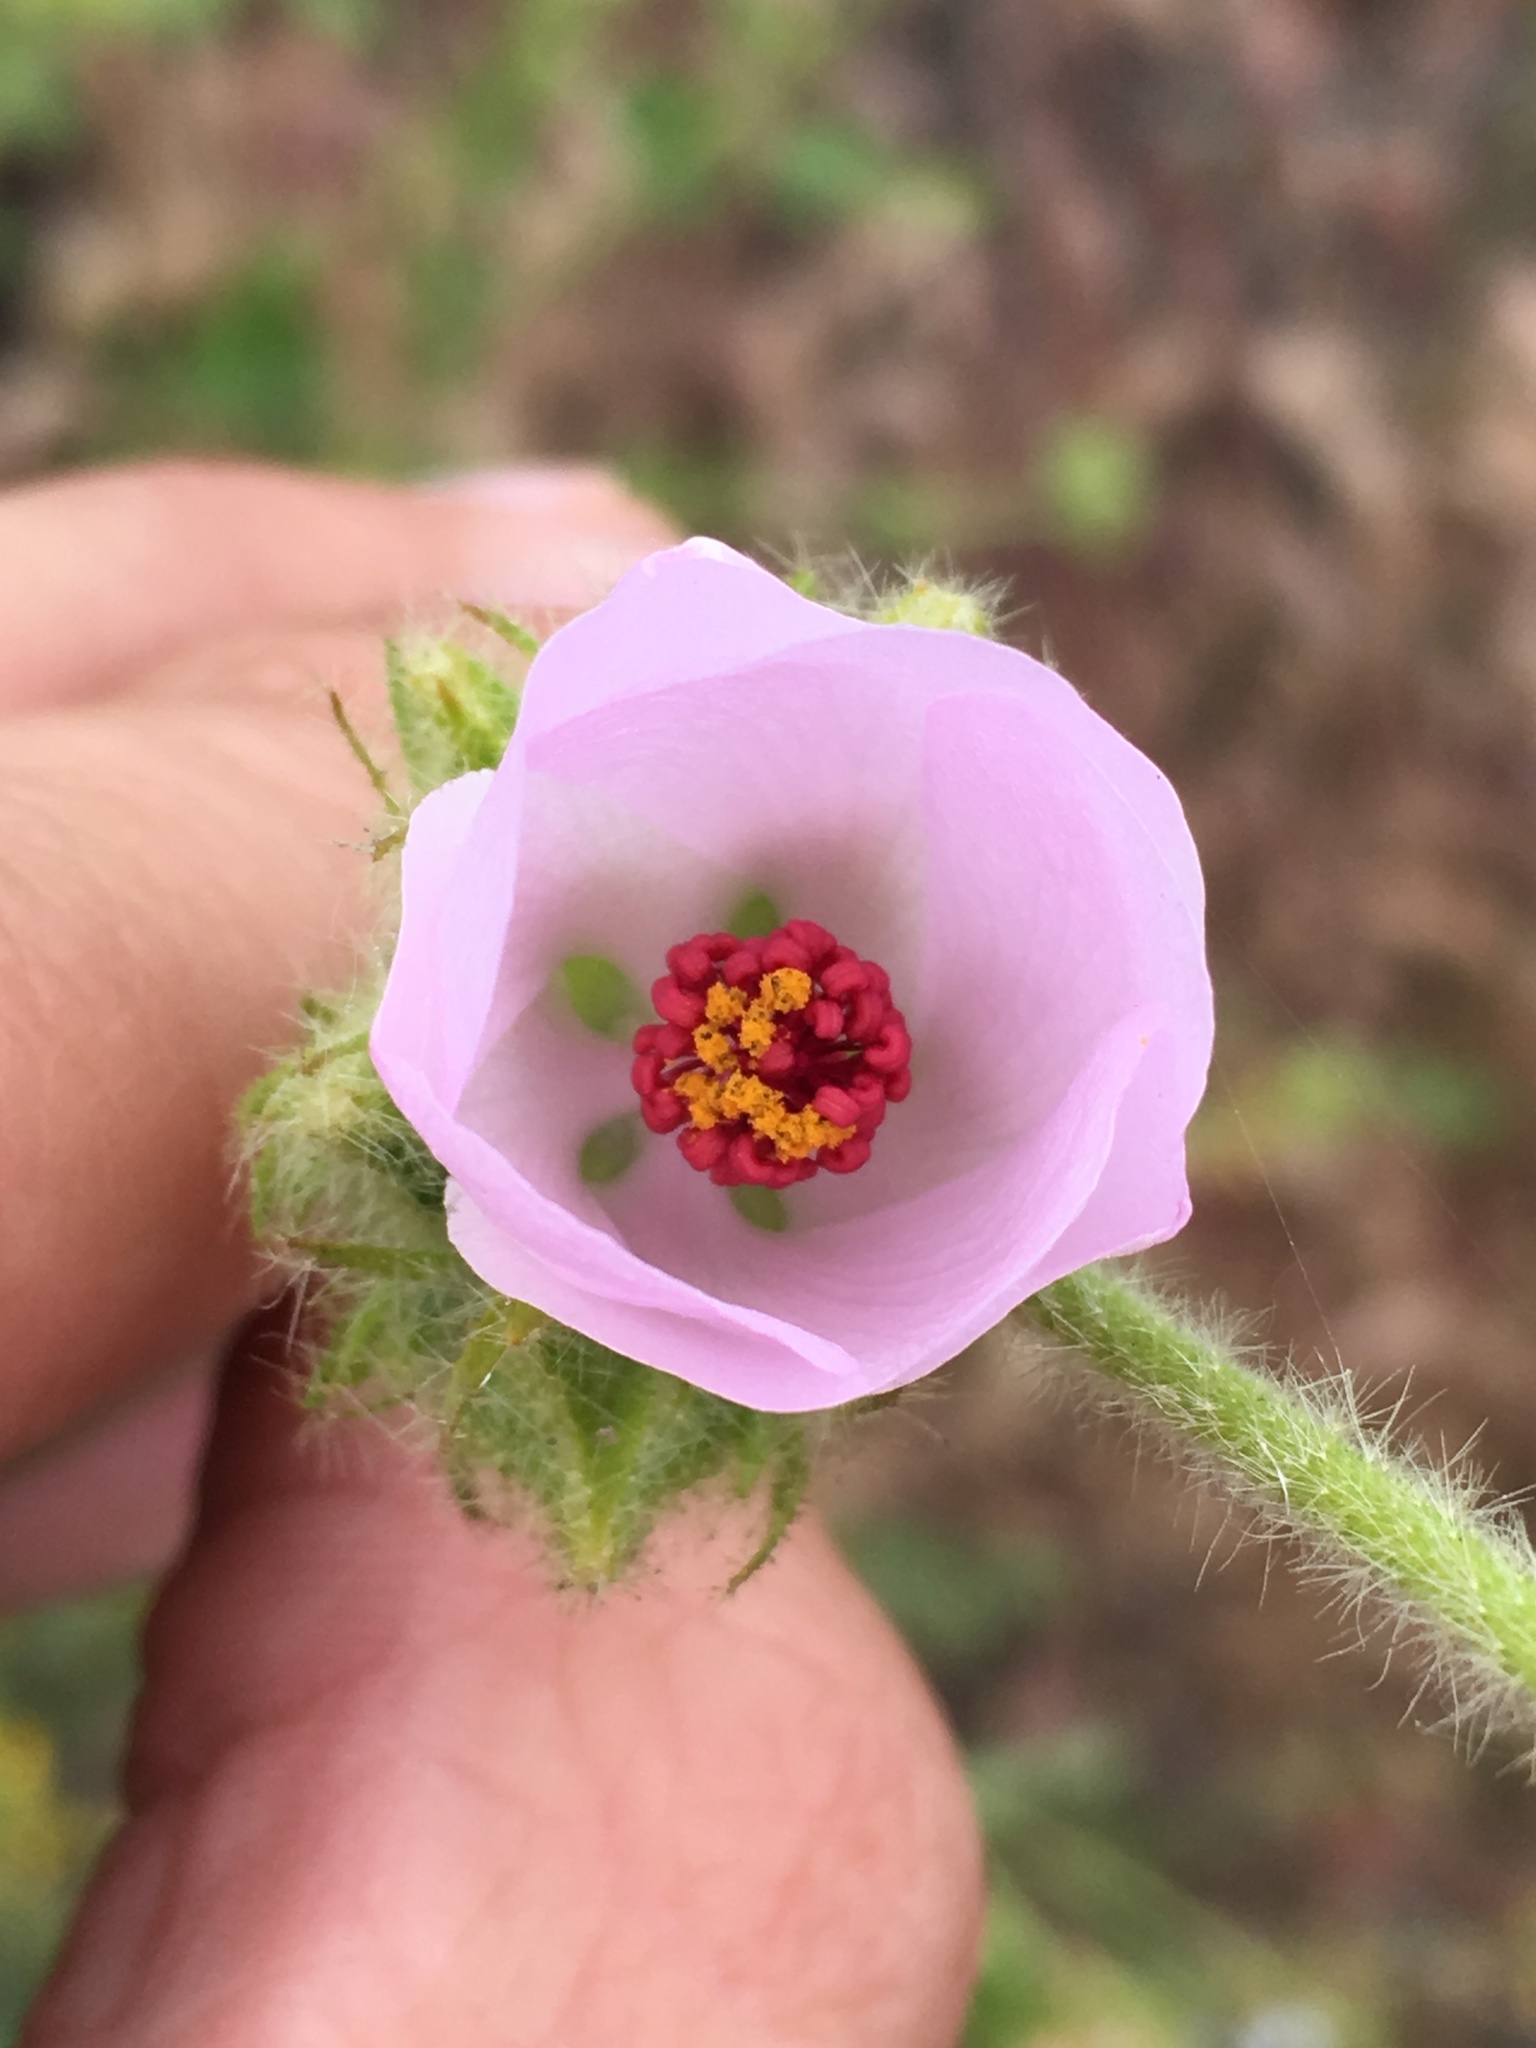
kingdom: Plantae
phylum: Tracheophyta
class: Magnoliopsida
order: Malvales
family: Malvaceae
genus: Malacothamnus
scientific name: Malacothamnus densiflorus
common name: Yellow-stem bush-mallow
